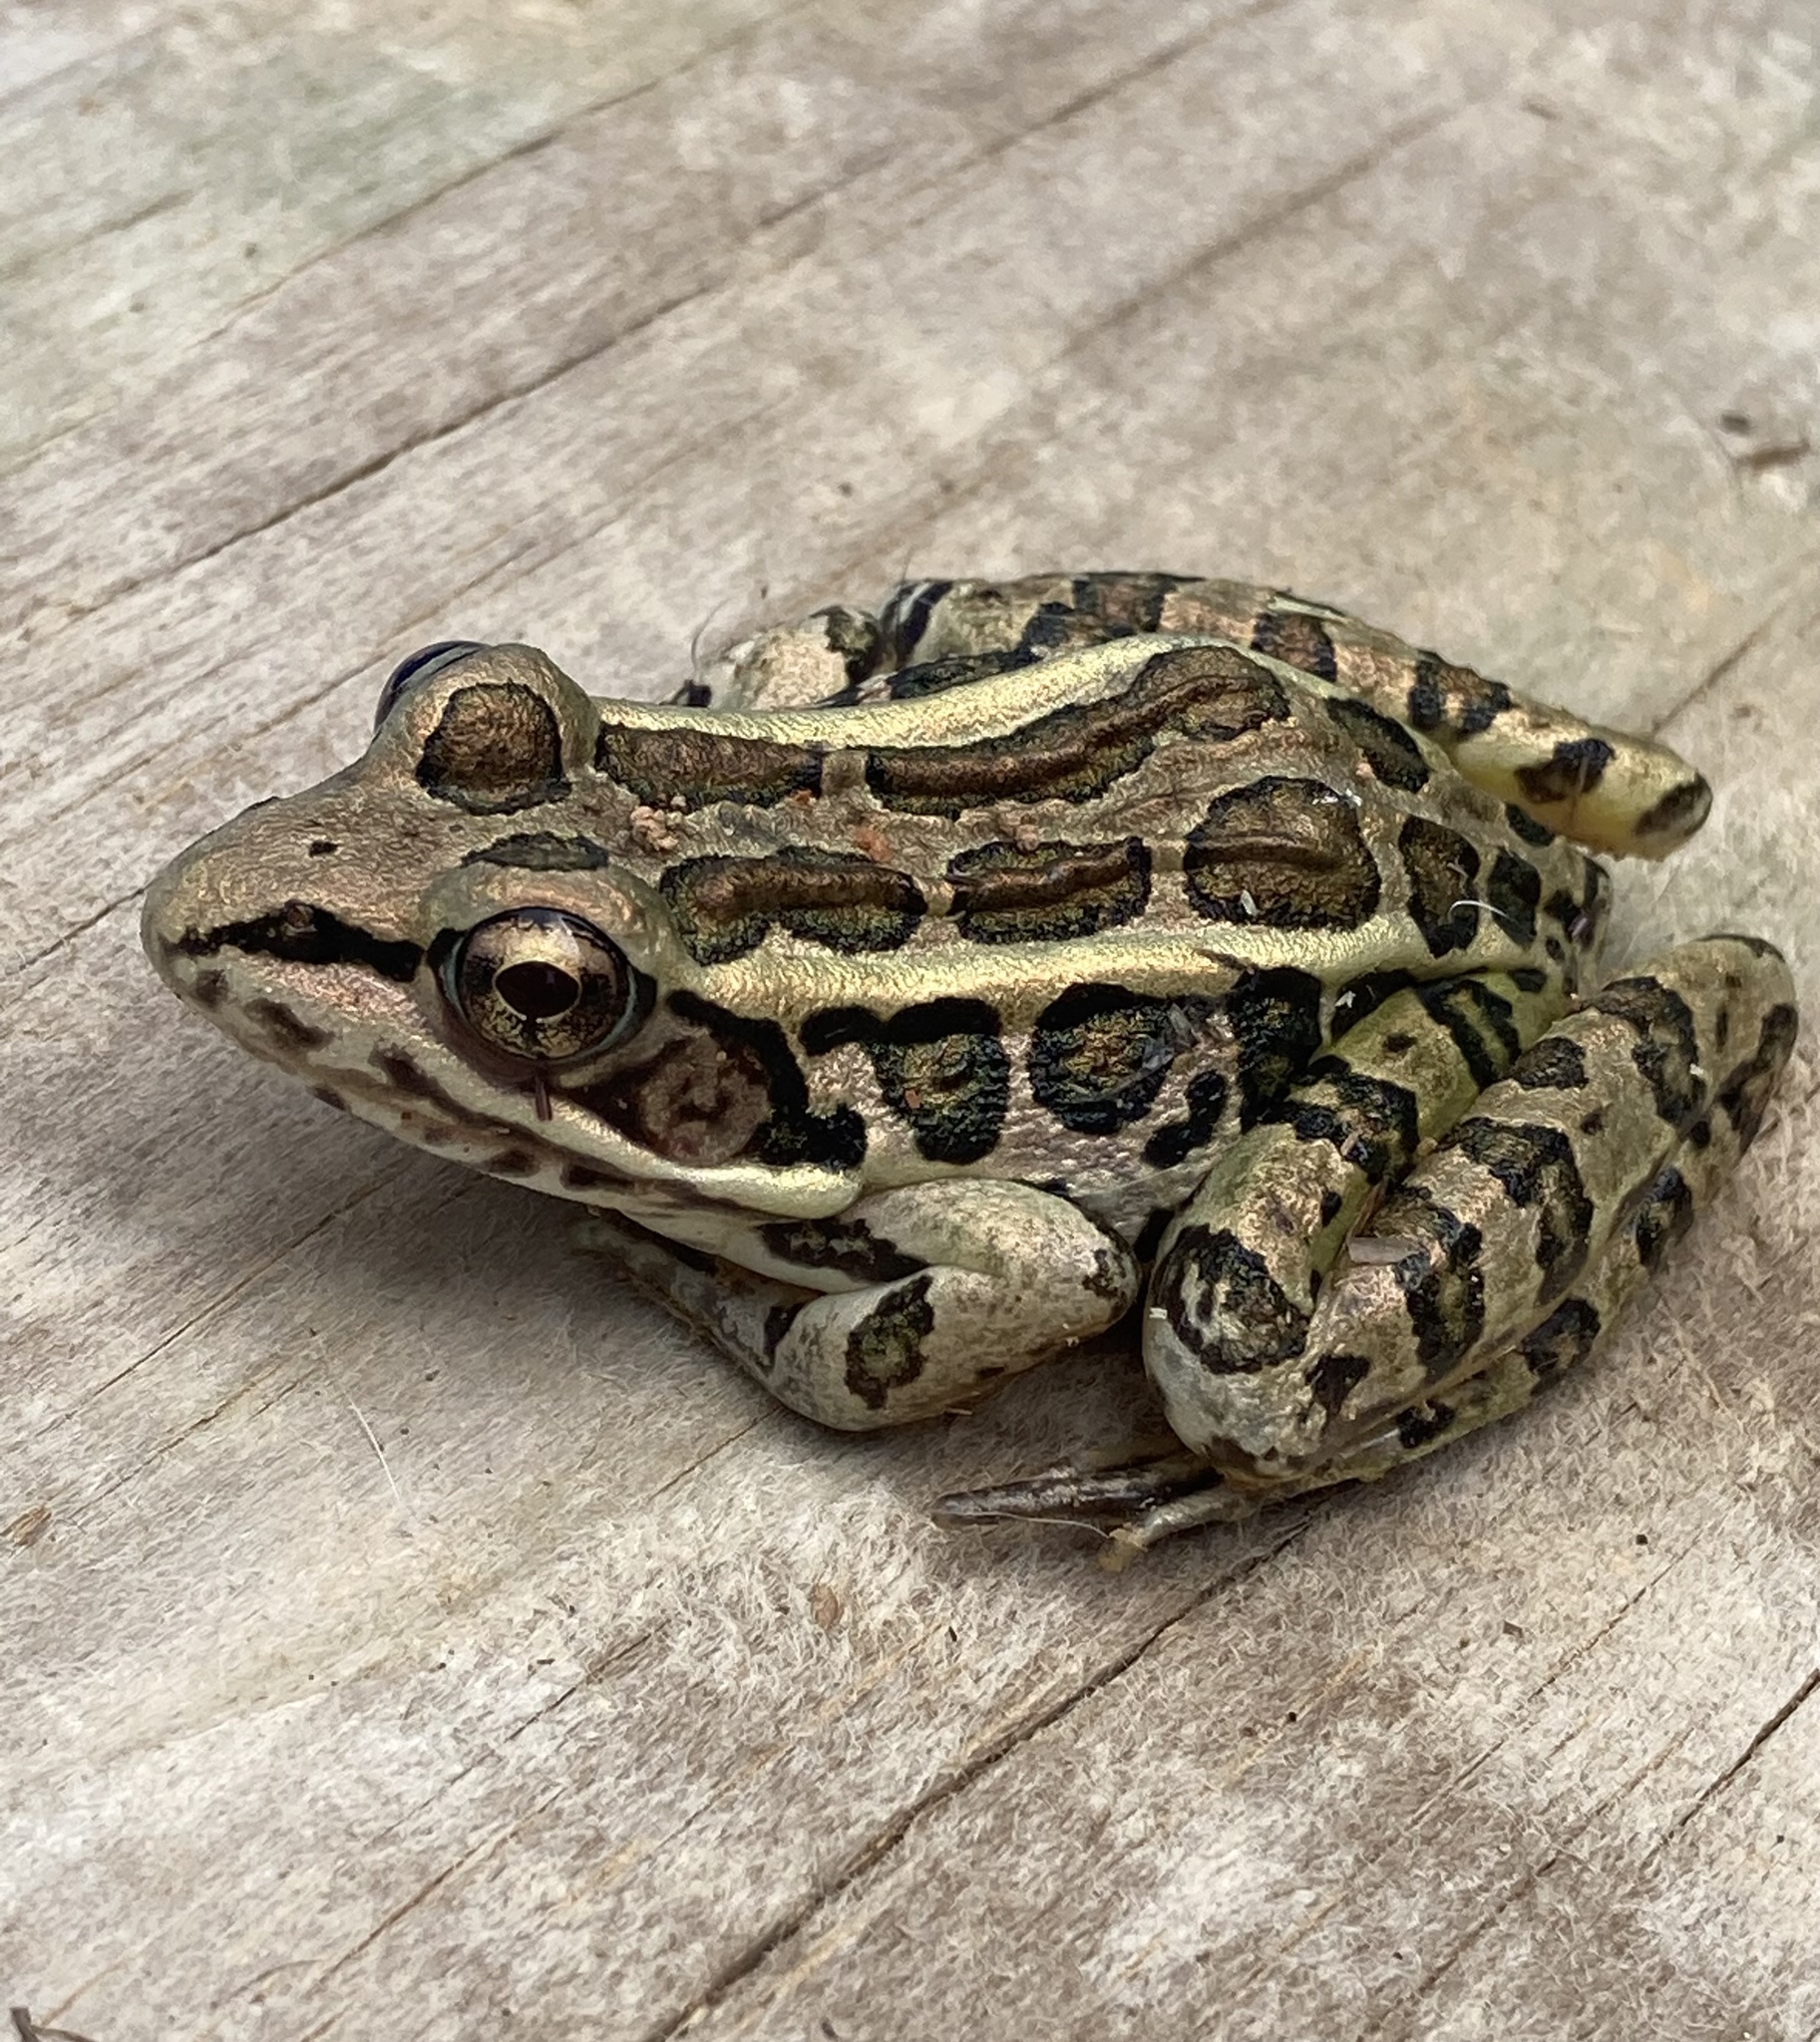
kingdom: Animalia
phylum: Chordata
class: Amphibia
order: Anura
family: Ranidae
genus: Lithobates
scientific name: Lithobates palustris
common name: Pickerel frog
